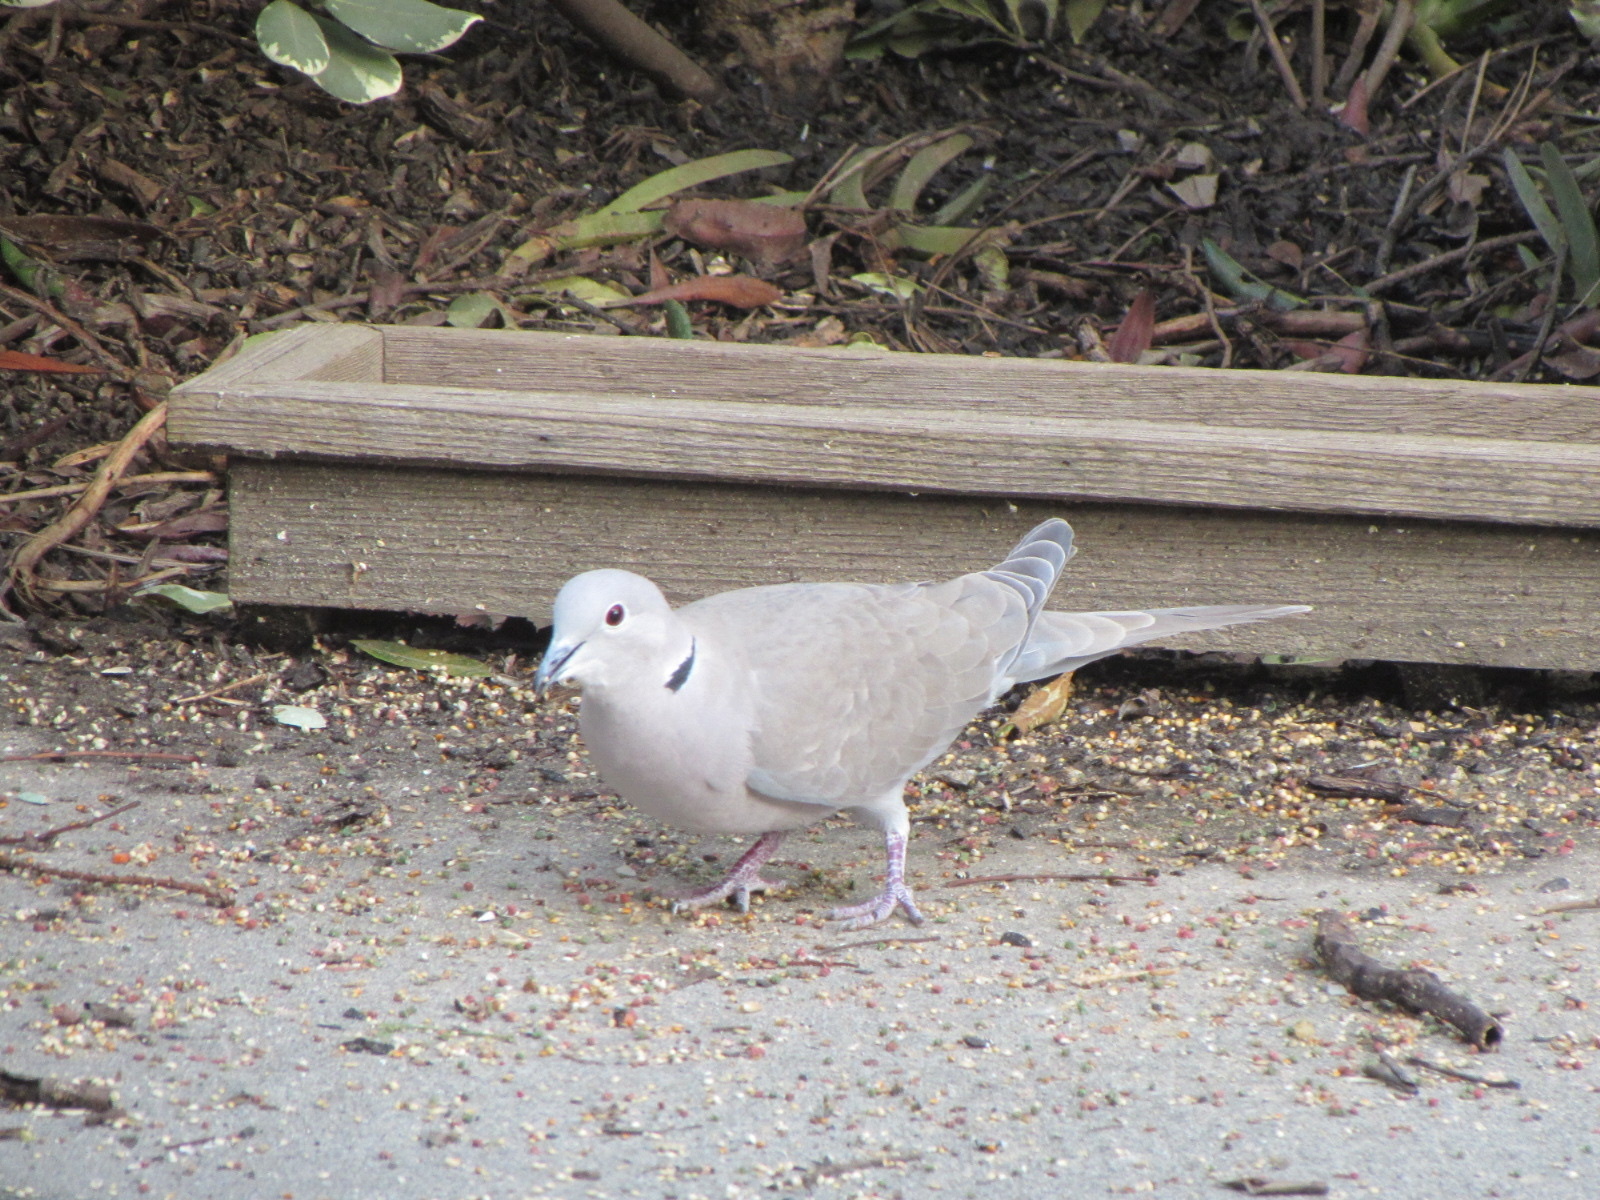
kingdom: Animalia
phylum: Chordata
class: Aves
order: Columbiformes
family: Columbidae
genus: Streptopelia
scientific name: Streptopelia decaocto
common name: Eurasian collared dove
